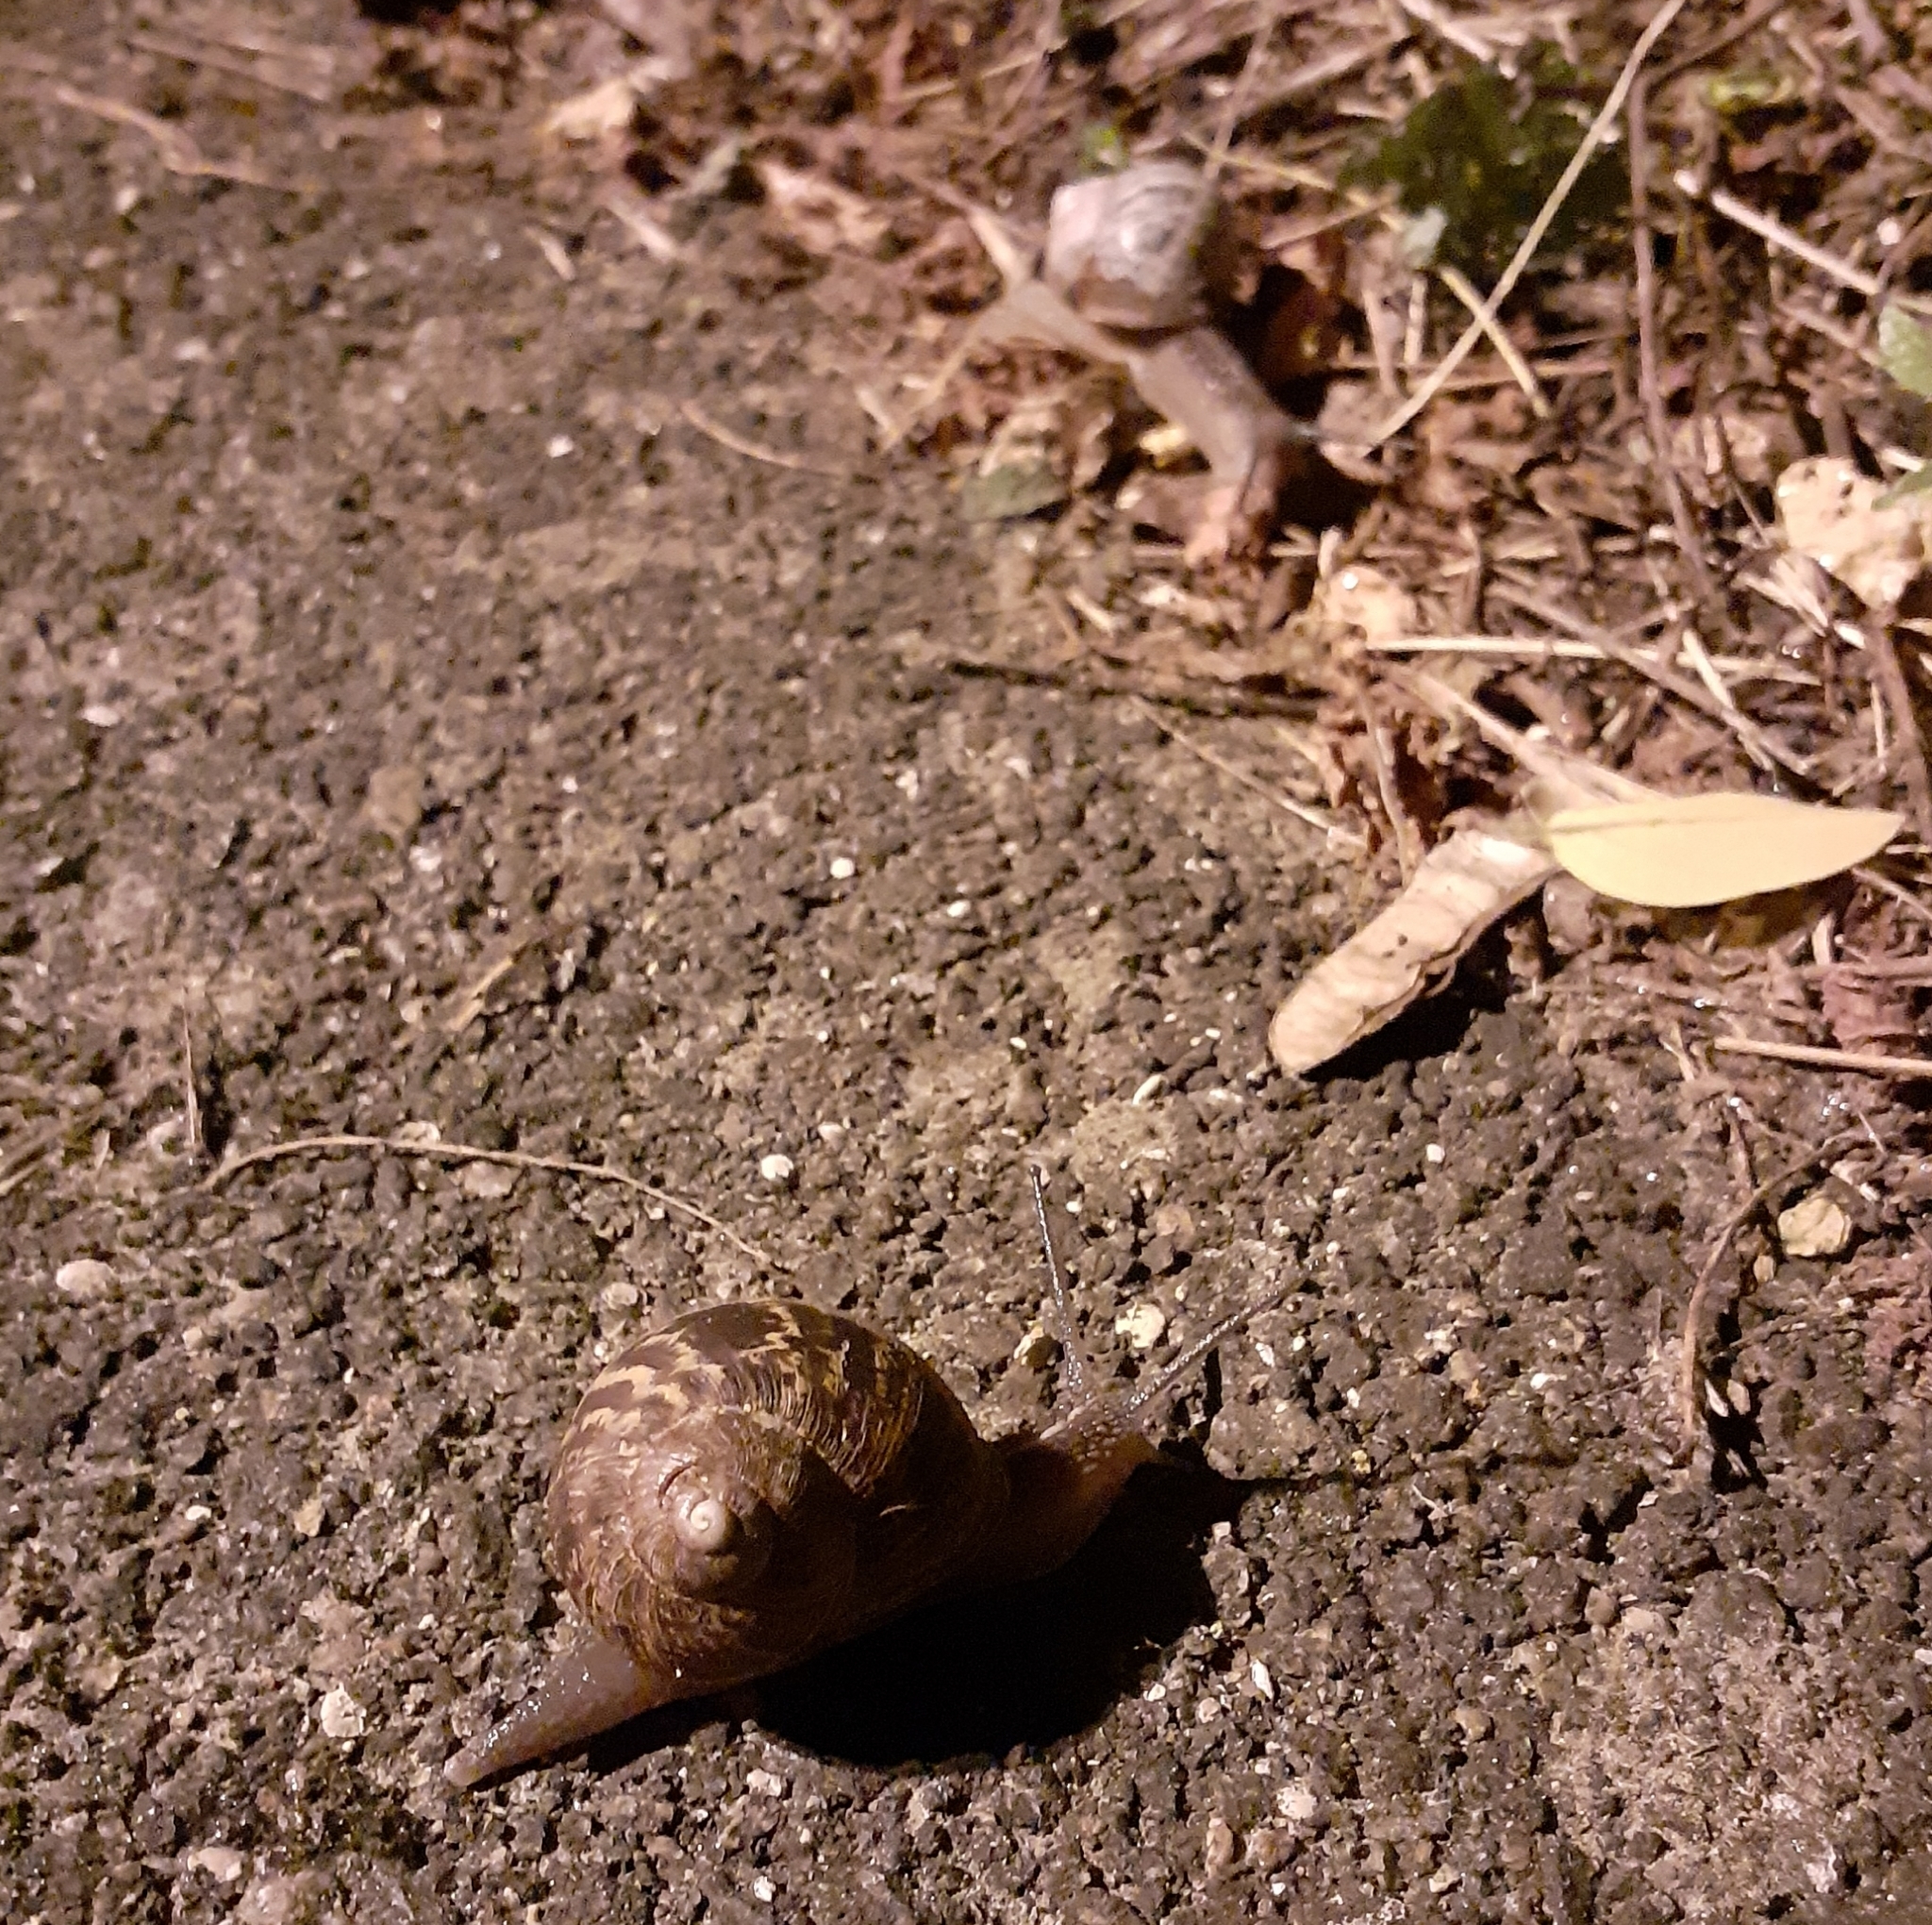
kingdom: Animalia
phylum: Mollusca
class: Gastropoda
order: Stylommatophora
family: Helicidae
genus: Cornu
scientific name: Cornu aspersum
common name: Brown garden snail
